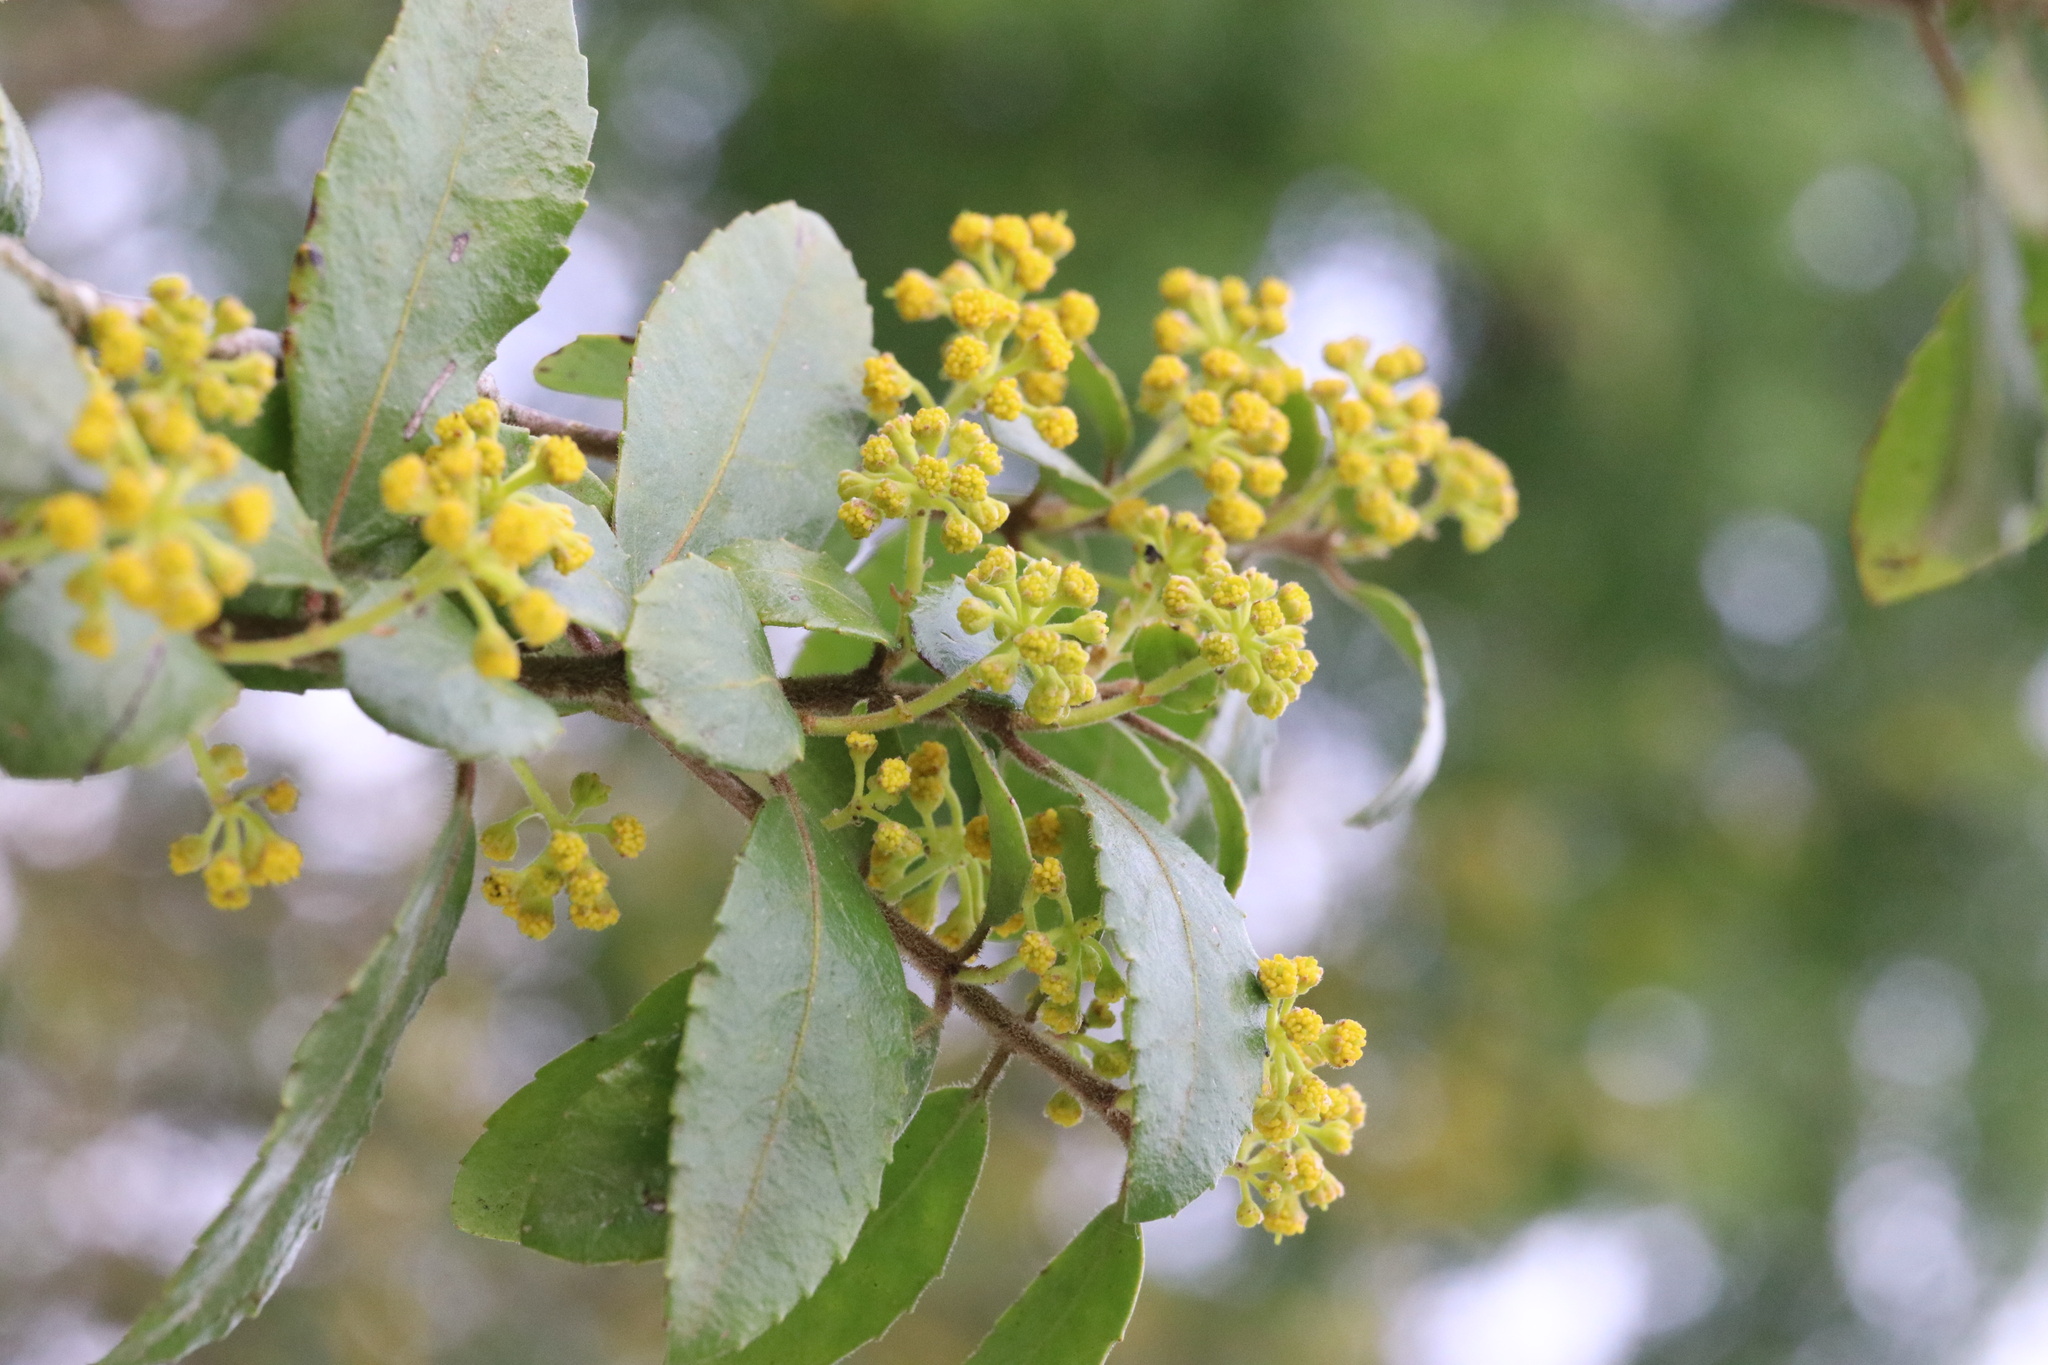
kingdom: Plantae
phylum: Tracheophyta
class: Magnoliopsida
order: Malpighiales
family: Salicaceae
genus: Azara
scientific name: Azara serrata
